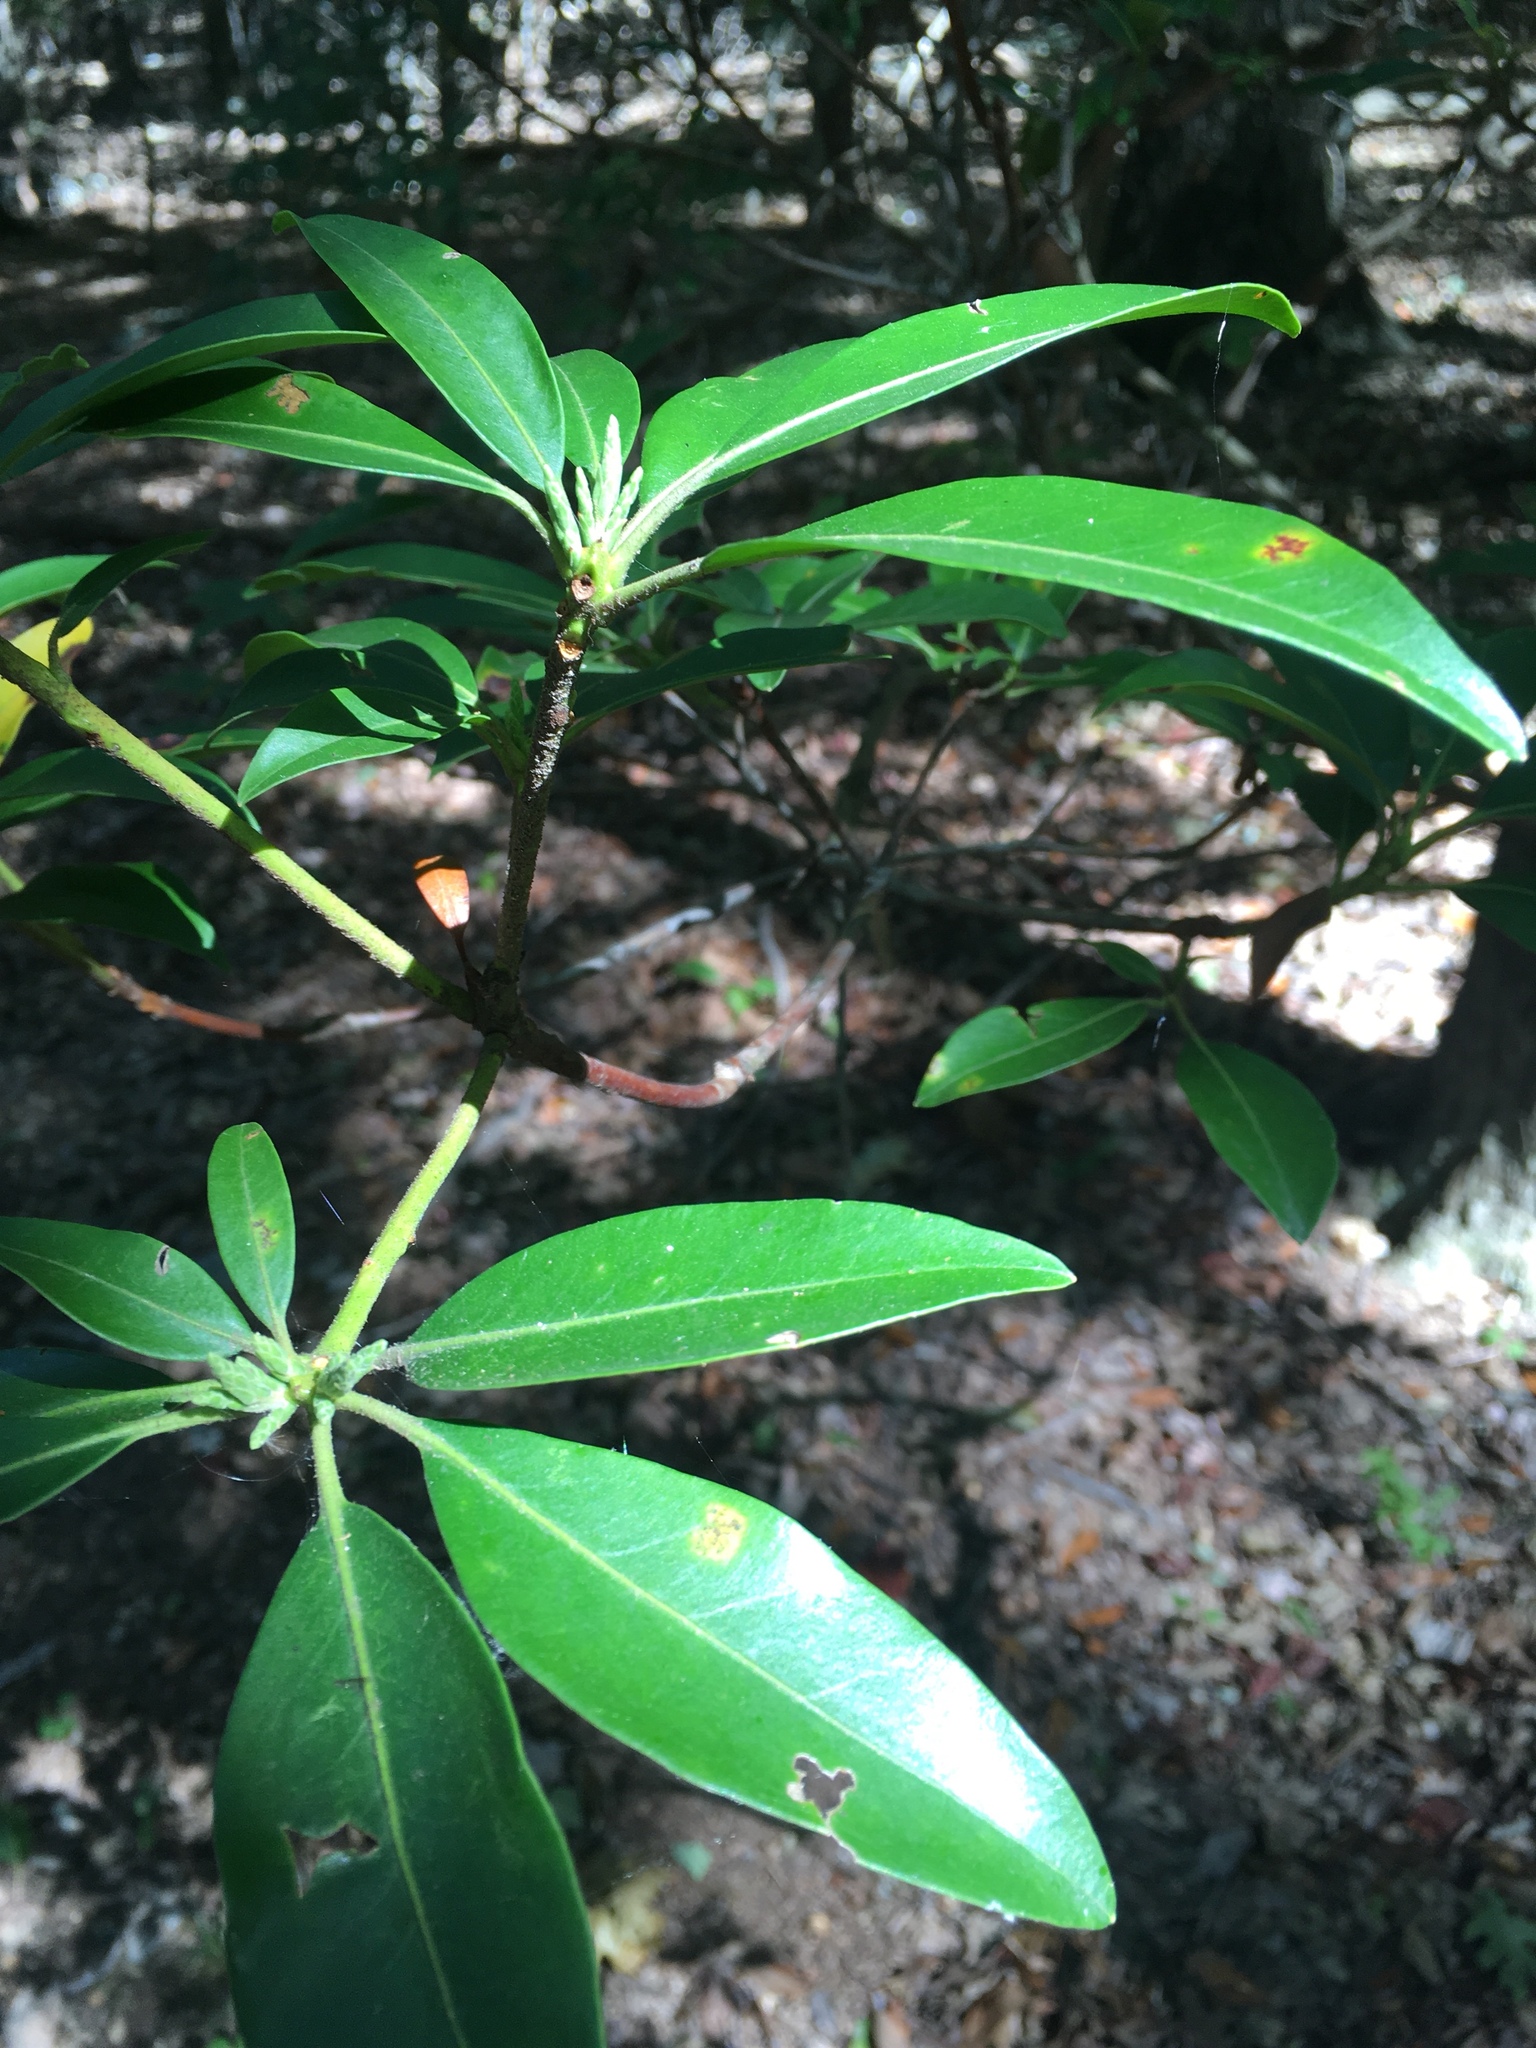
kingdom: Plantae
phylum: Tracheophyta
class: Magnoliopsida
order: Ericales
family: Ericaceae
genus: Kalmia
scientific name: Kalmia latifolia
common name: Mountain-laurel
